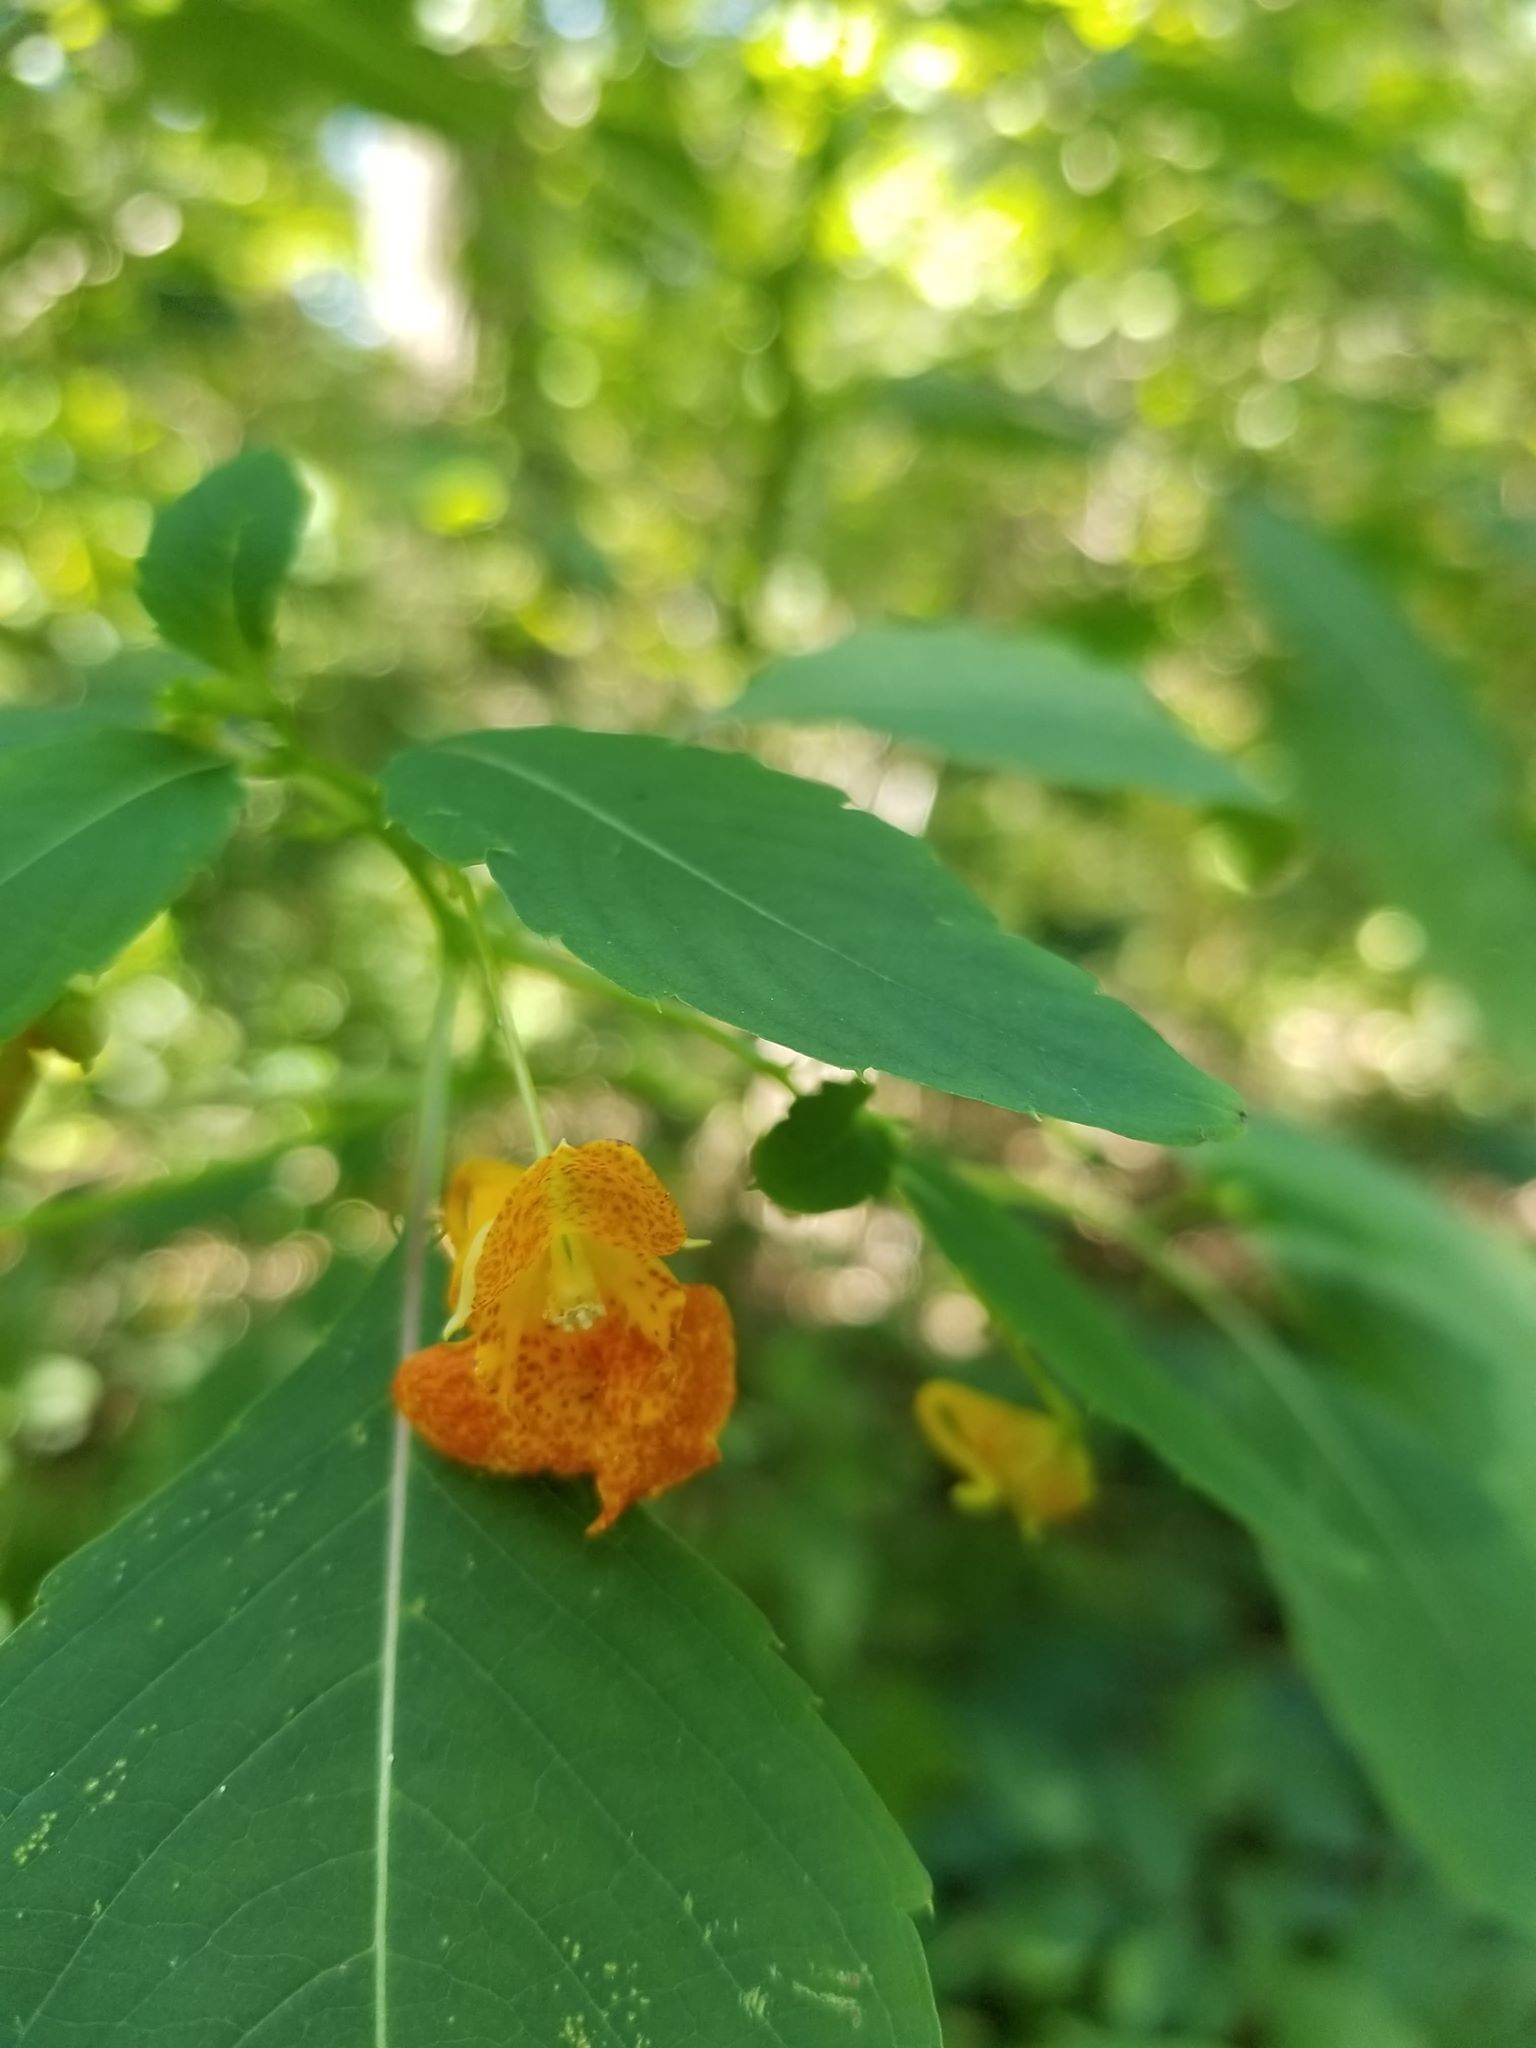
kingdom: Plantae
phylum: Tracheophyta
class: Magnoliopsida
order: Ericales
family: Balsaminaceae
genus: Impatiens
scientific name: Impatiens capensis
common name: Orange balsam
